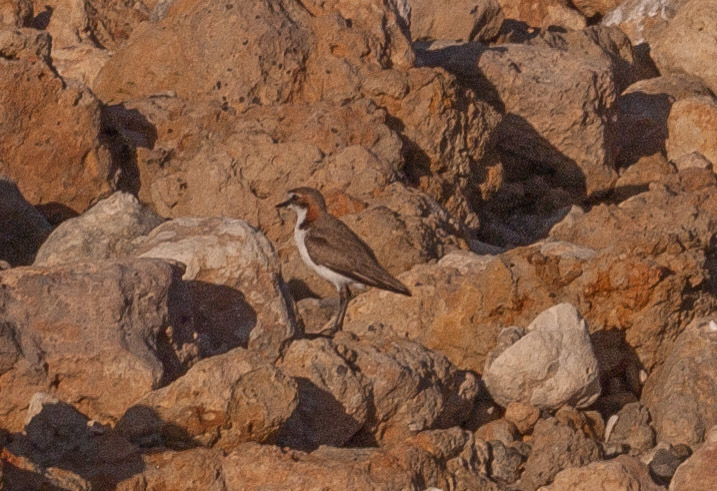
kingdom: Animalia
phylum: Chordata
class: Aves
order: Charadriiformes
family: Charadriidae
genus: Anarhynchus
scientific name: Anarhynchus
